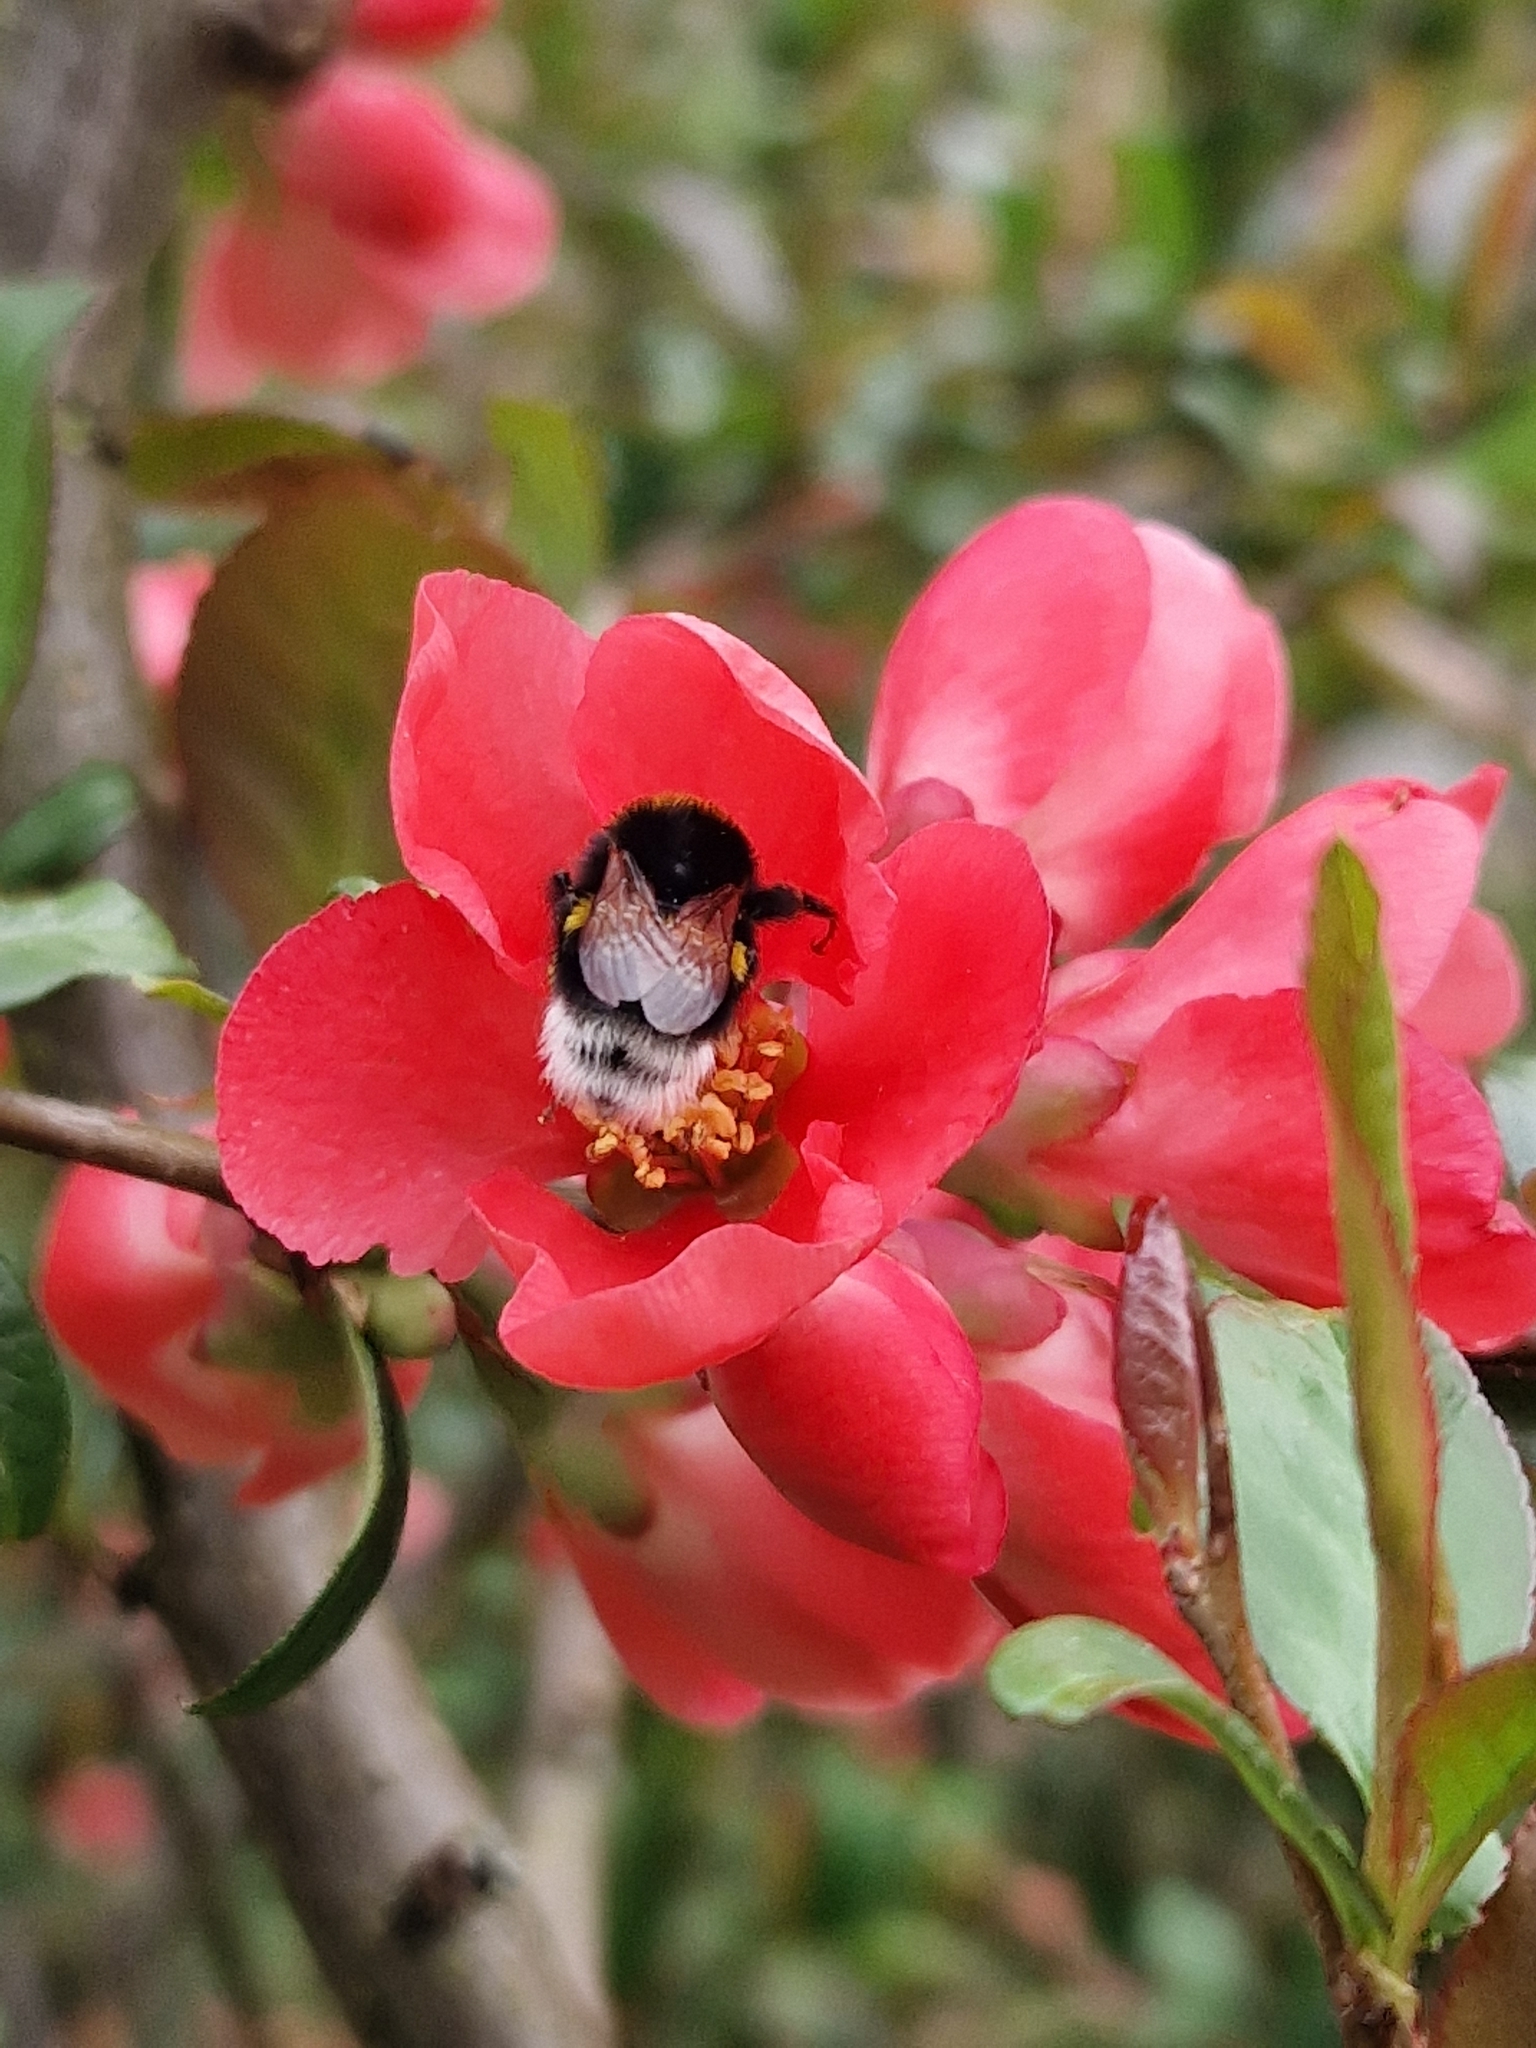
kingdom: Animalia
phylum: Arthropoda
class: Insecta
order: Hymenoptera
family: Apidae
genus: Bombus
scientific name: Bombus hortorum
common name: Garden bumblebee
